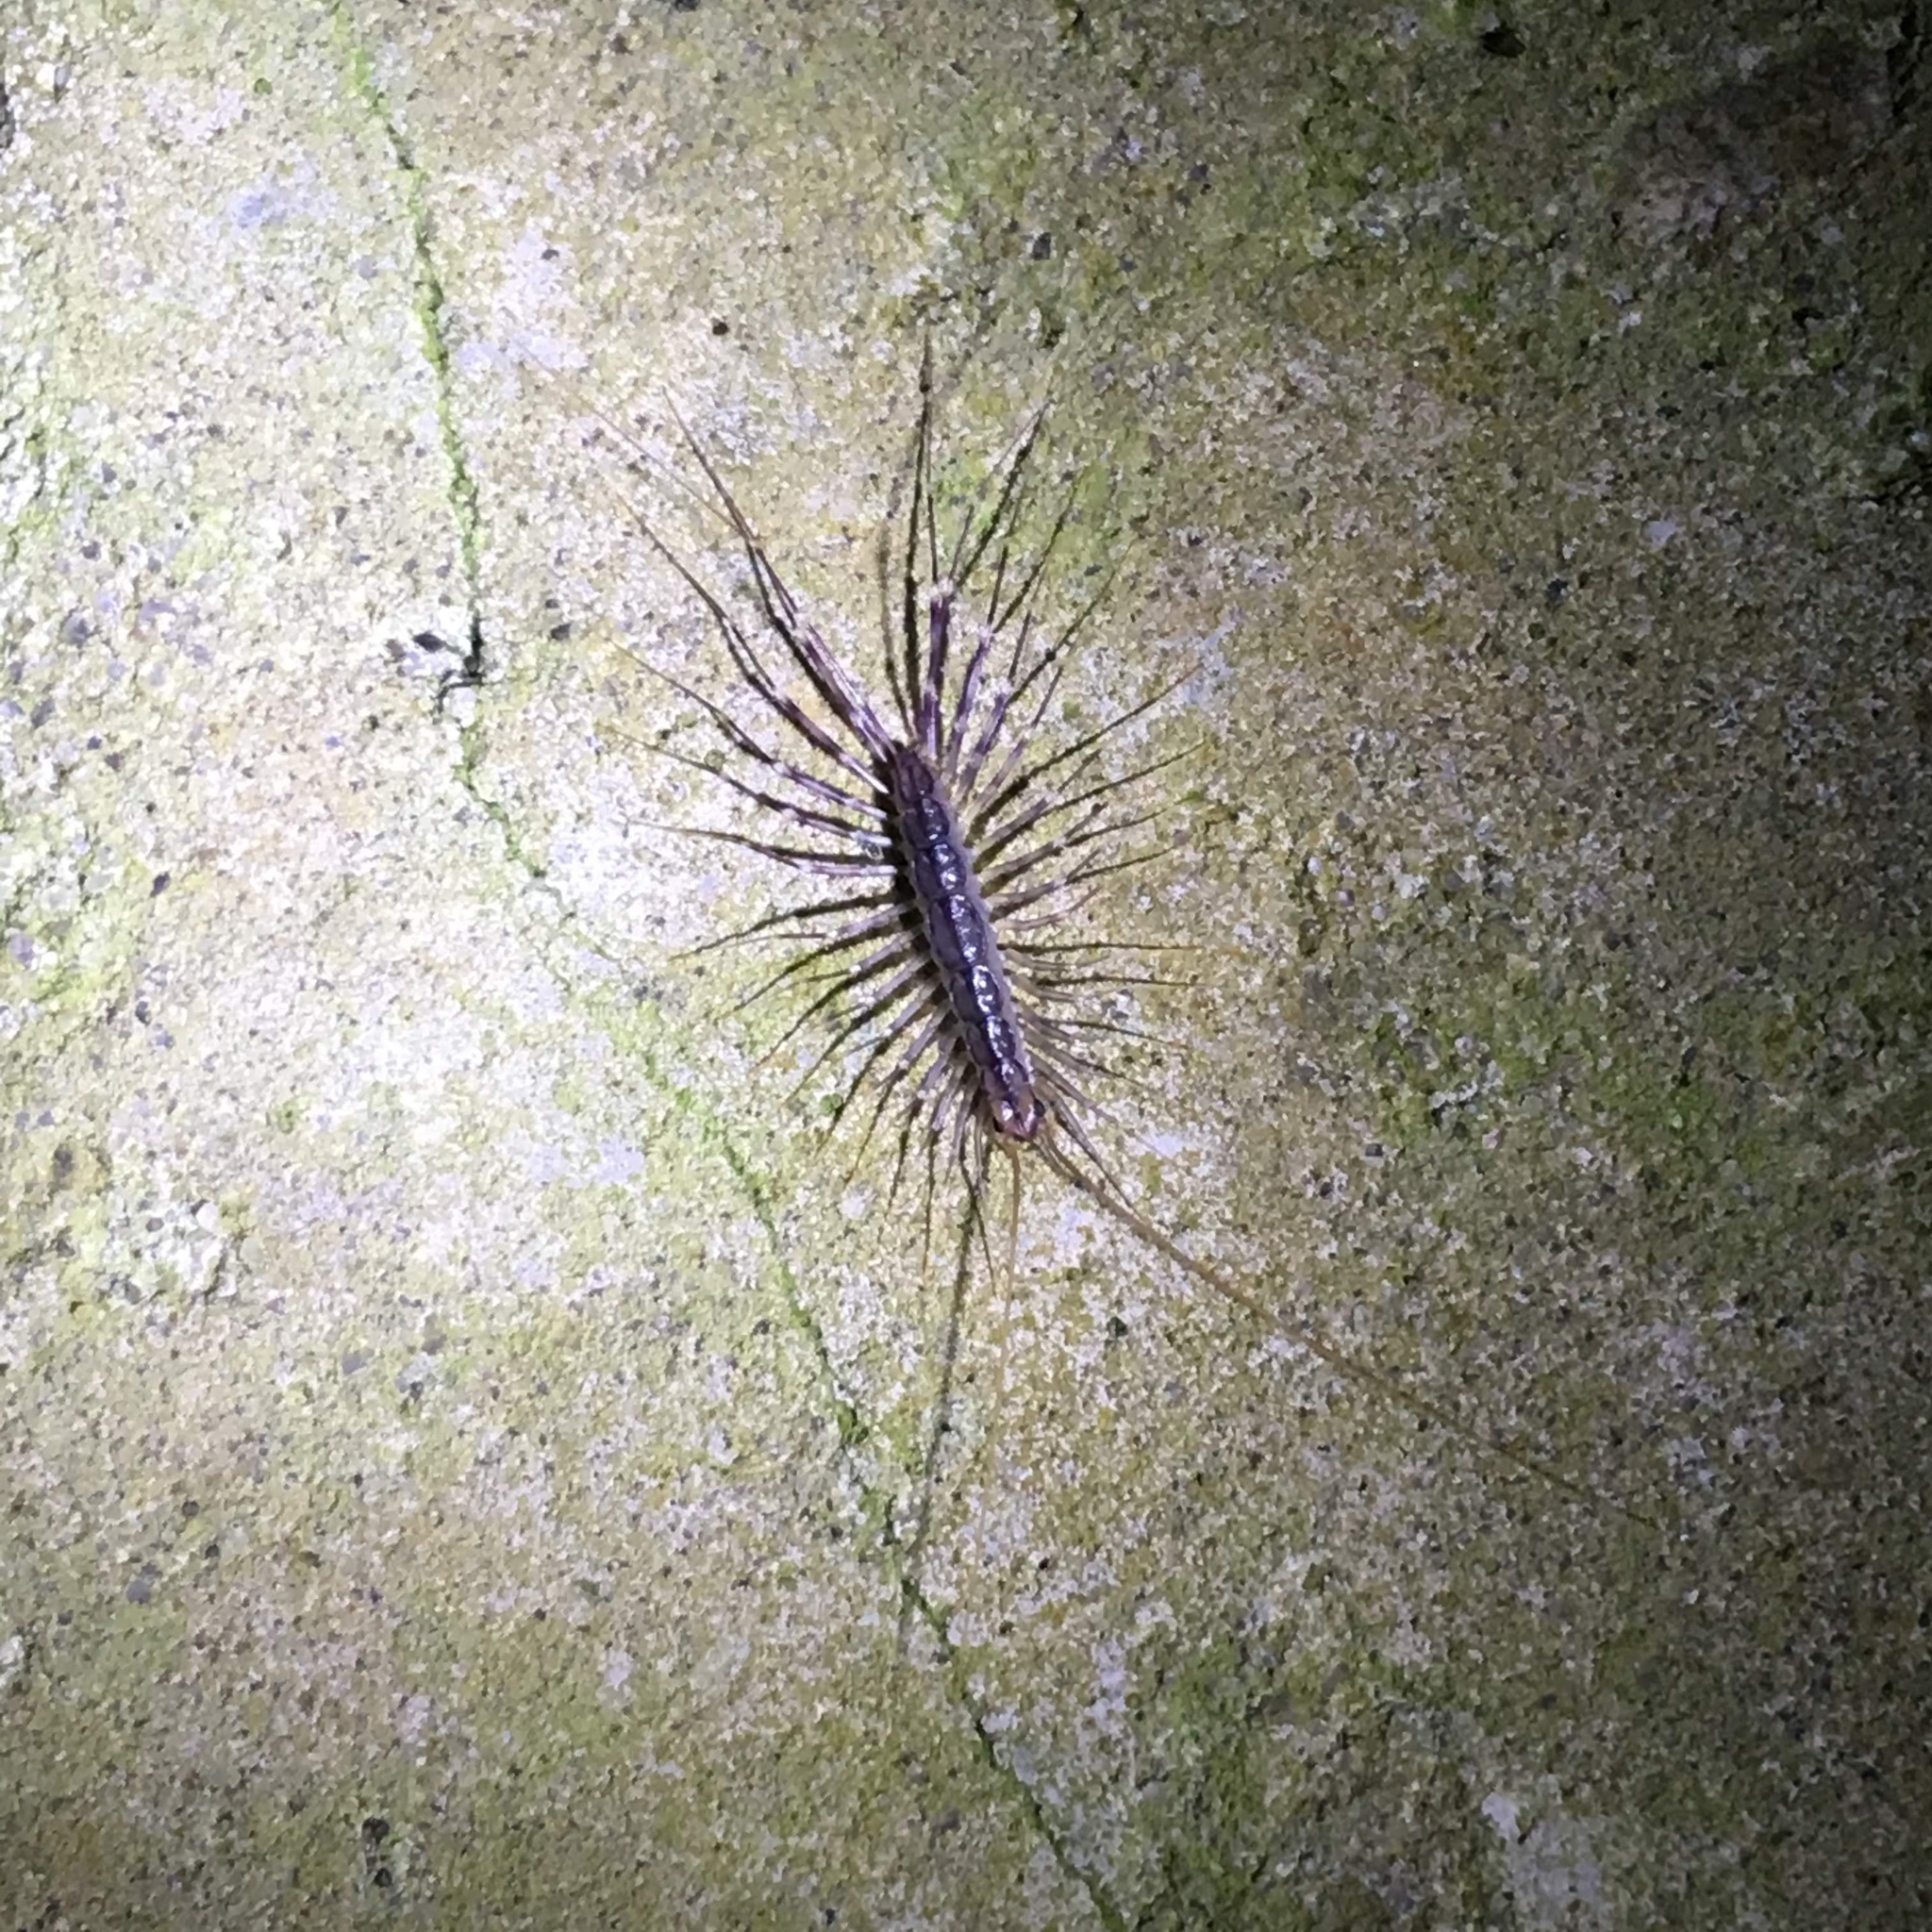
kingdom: Animalia
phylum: Arthropoda
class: Chilopoda
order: Scutigeromorpha
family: Scutigeridae
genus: Scutigera
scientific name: Scutigera coleoptrata
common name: House centipede
